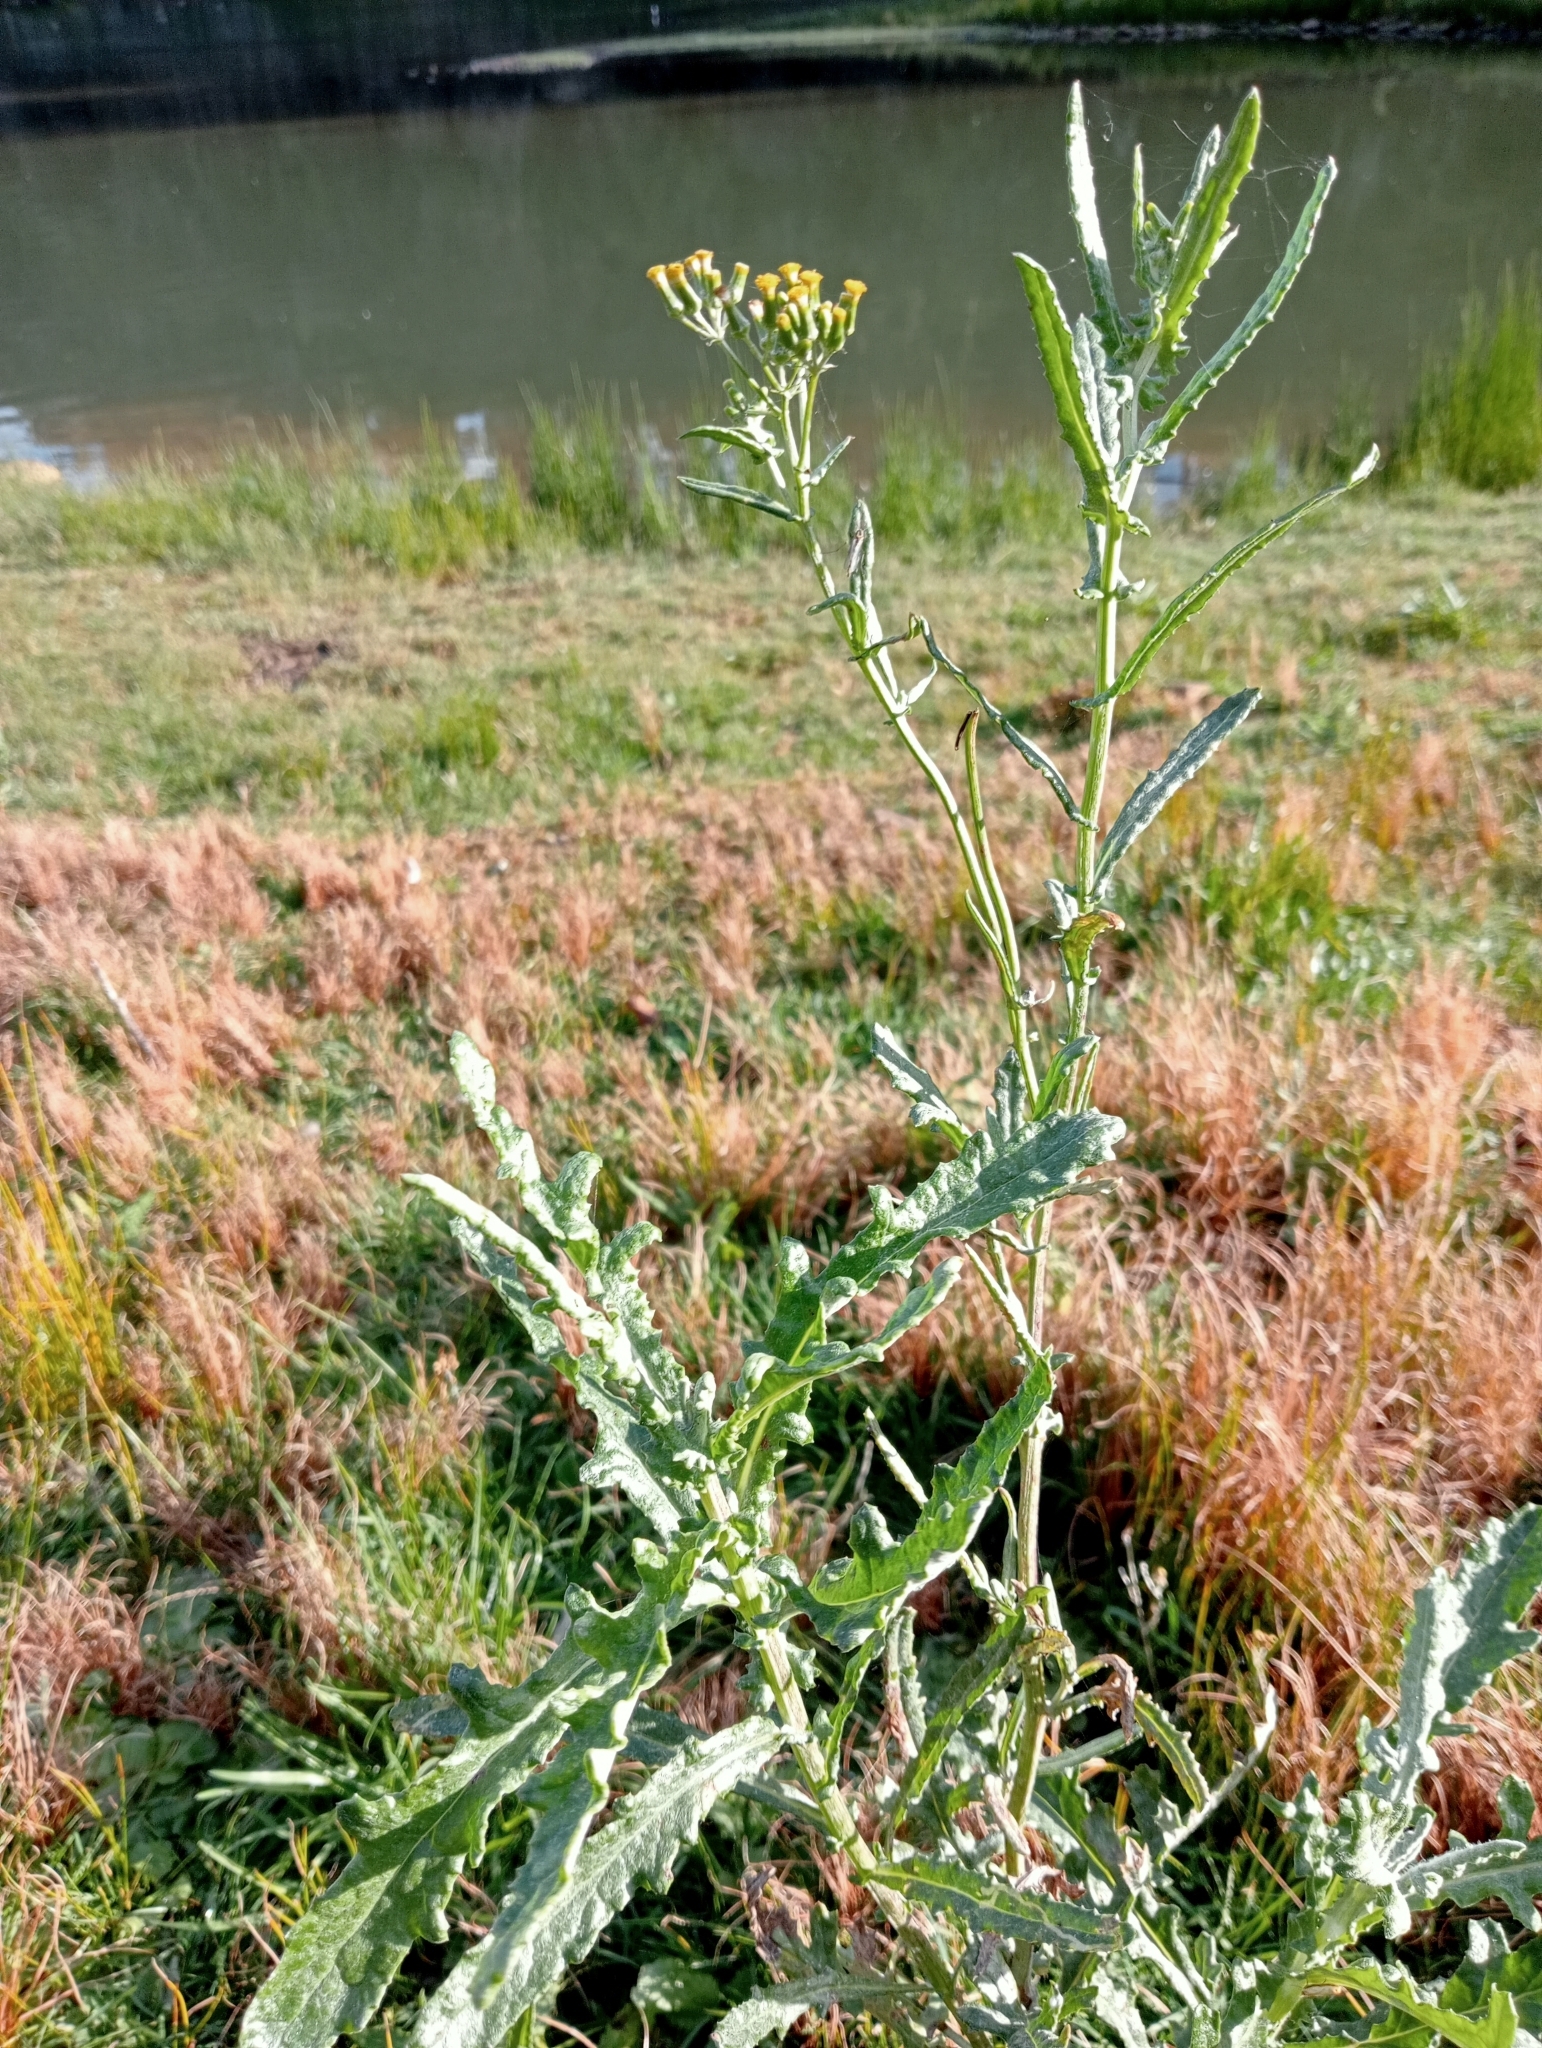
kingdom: Plantae
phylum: Tracheophyta
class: Magnoliopsida
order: Asterales
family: Asteraceae
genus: Senecio
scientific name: Senecio glomeratus
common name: Cutleaf burnweed
